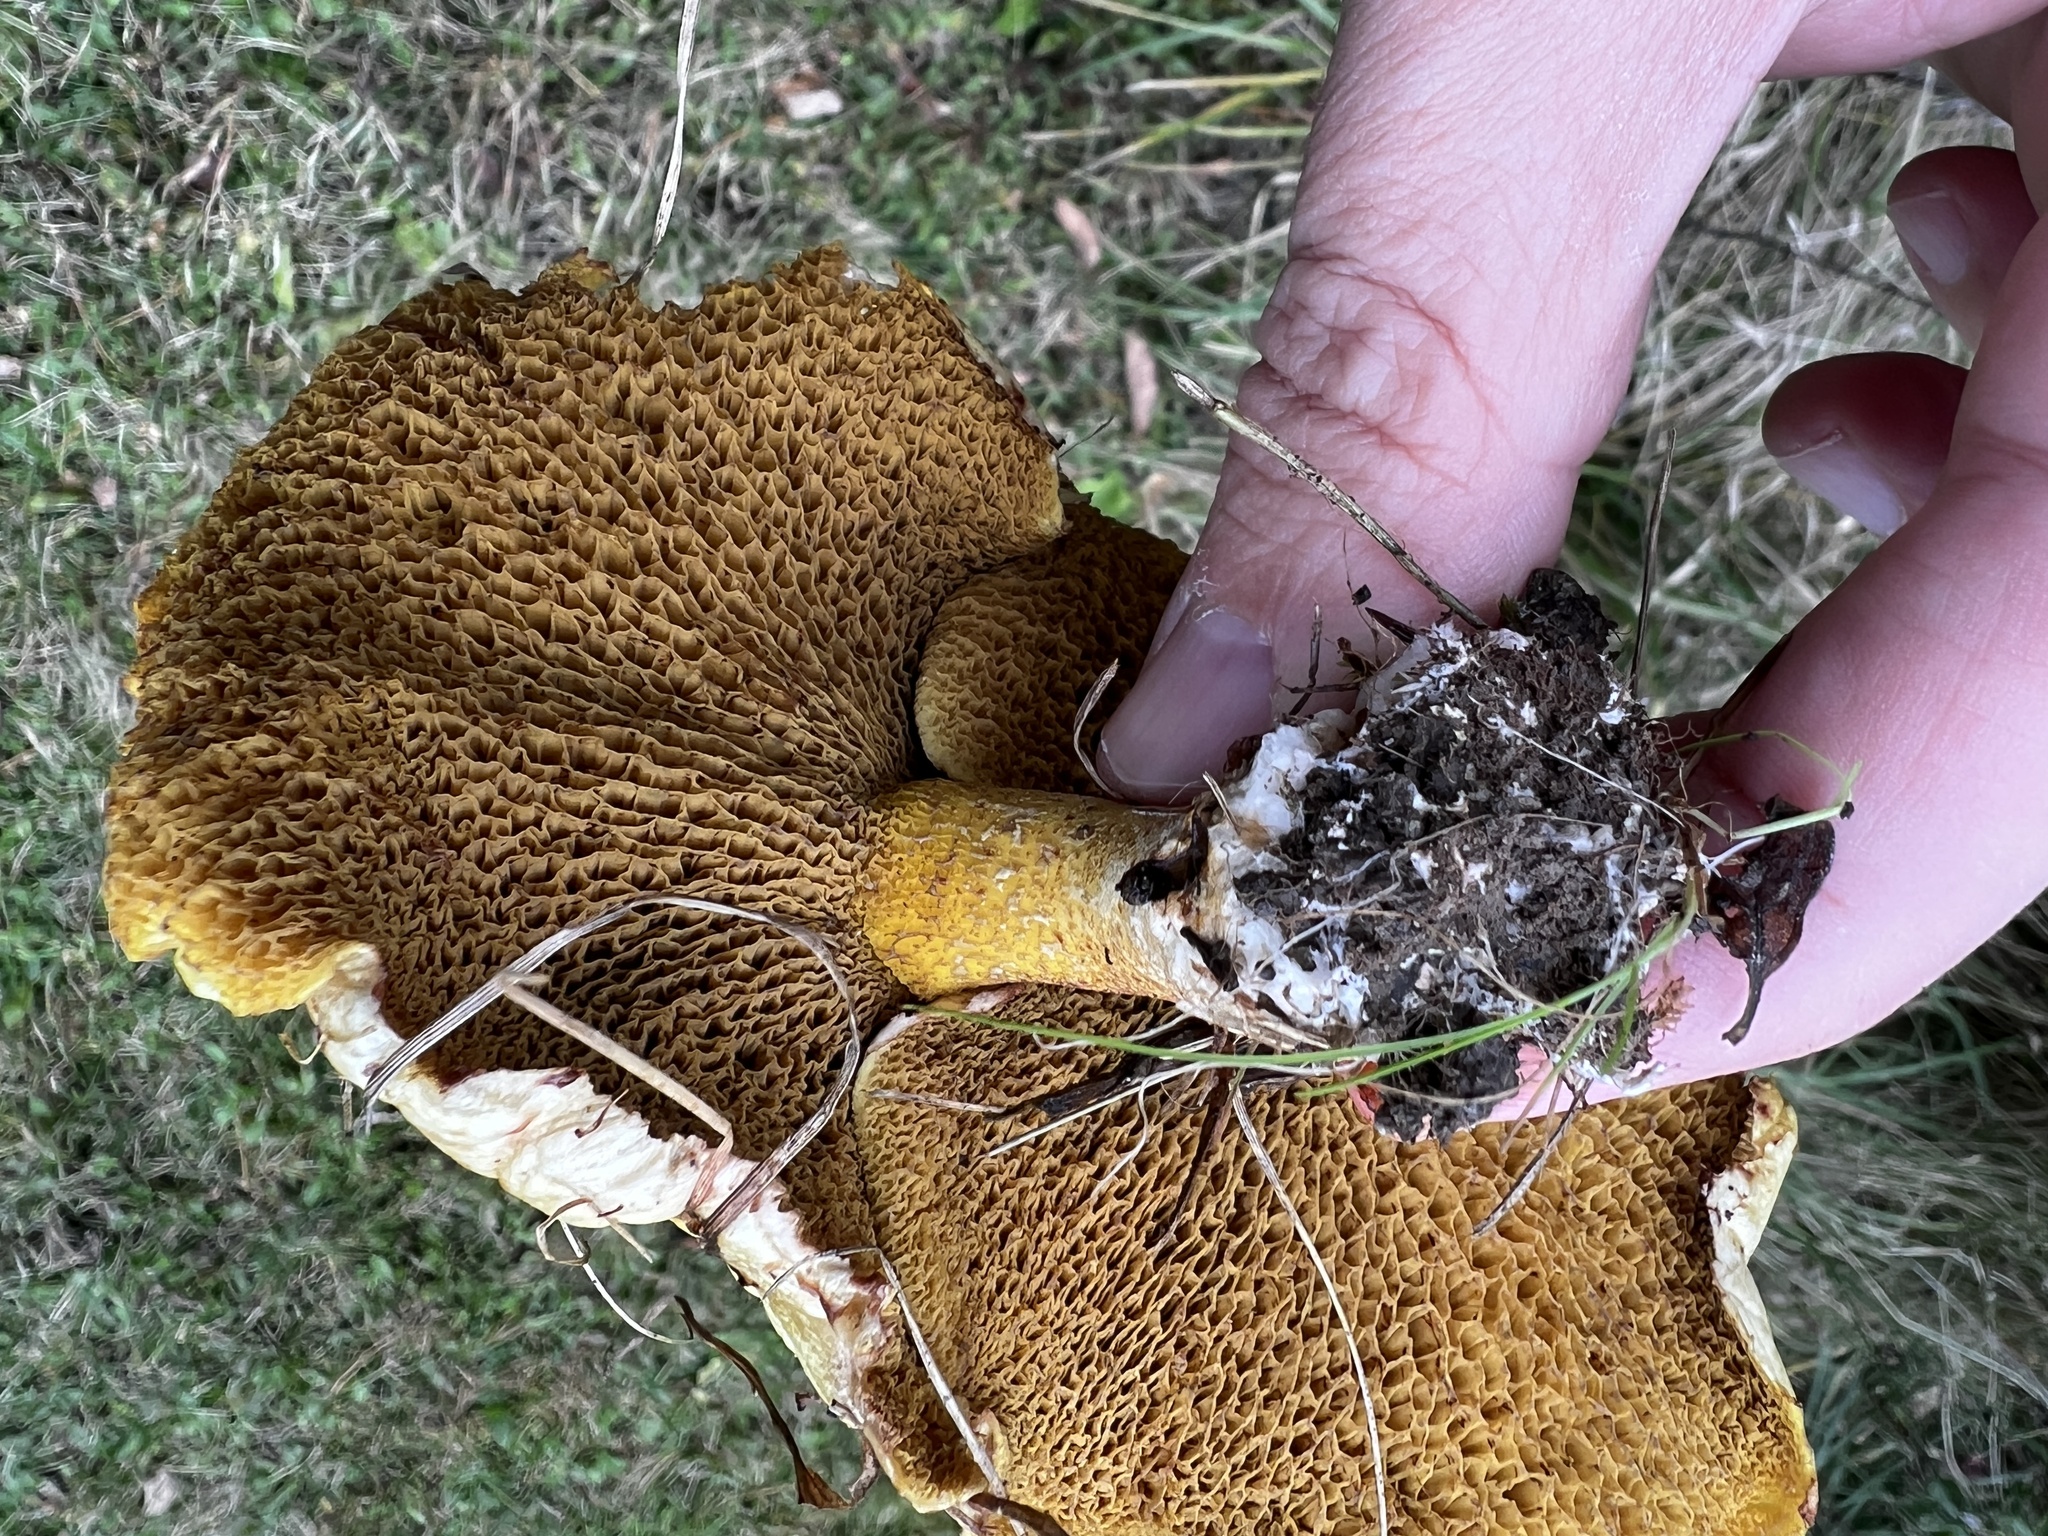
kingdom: Fungi
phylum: Basidiomycota
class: Agaricomycetes
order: Boletales
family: Suillaceae
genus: Suillus
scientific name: Suillus americanus
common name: Chicken fat mushroom
